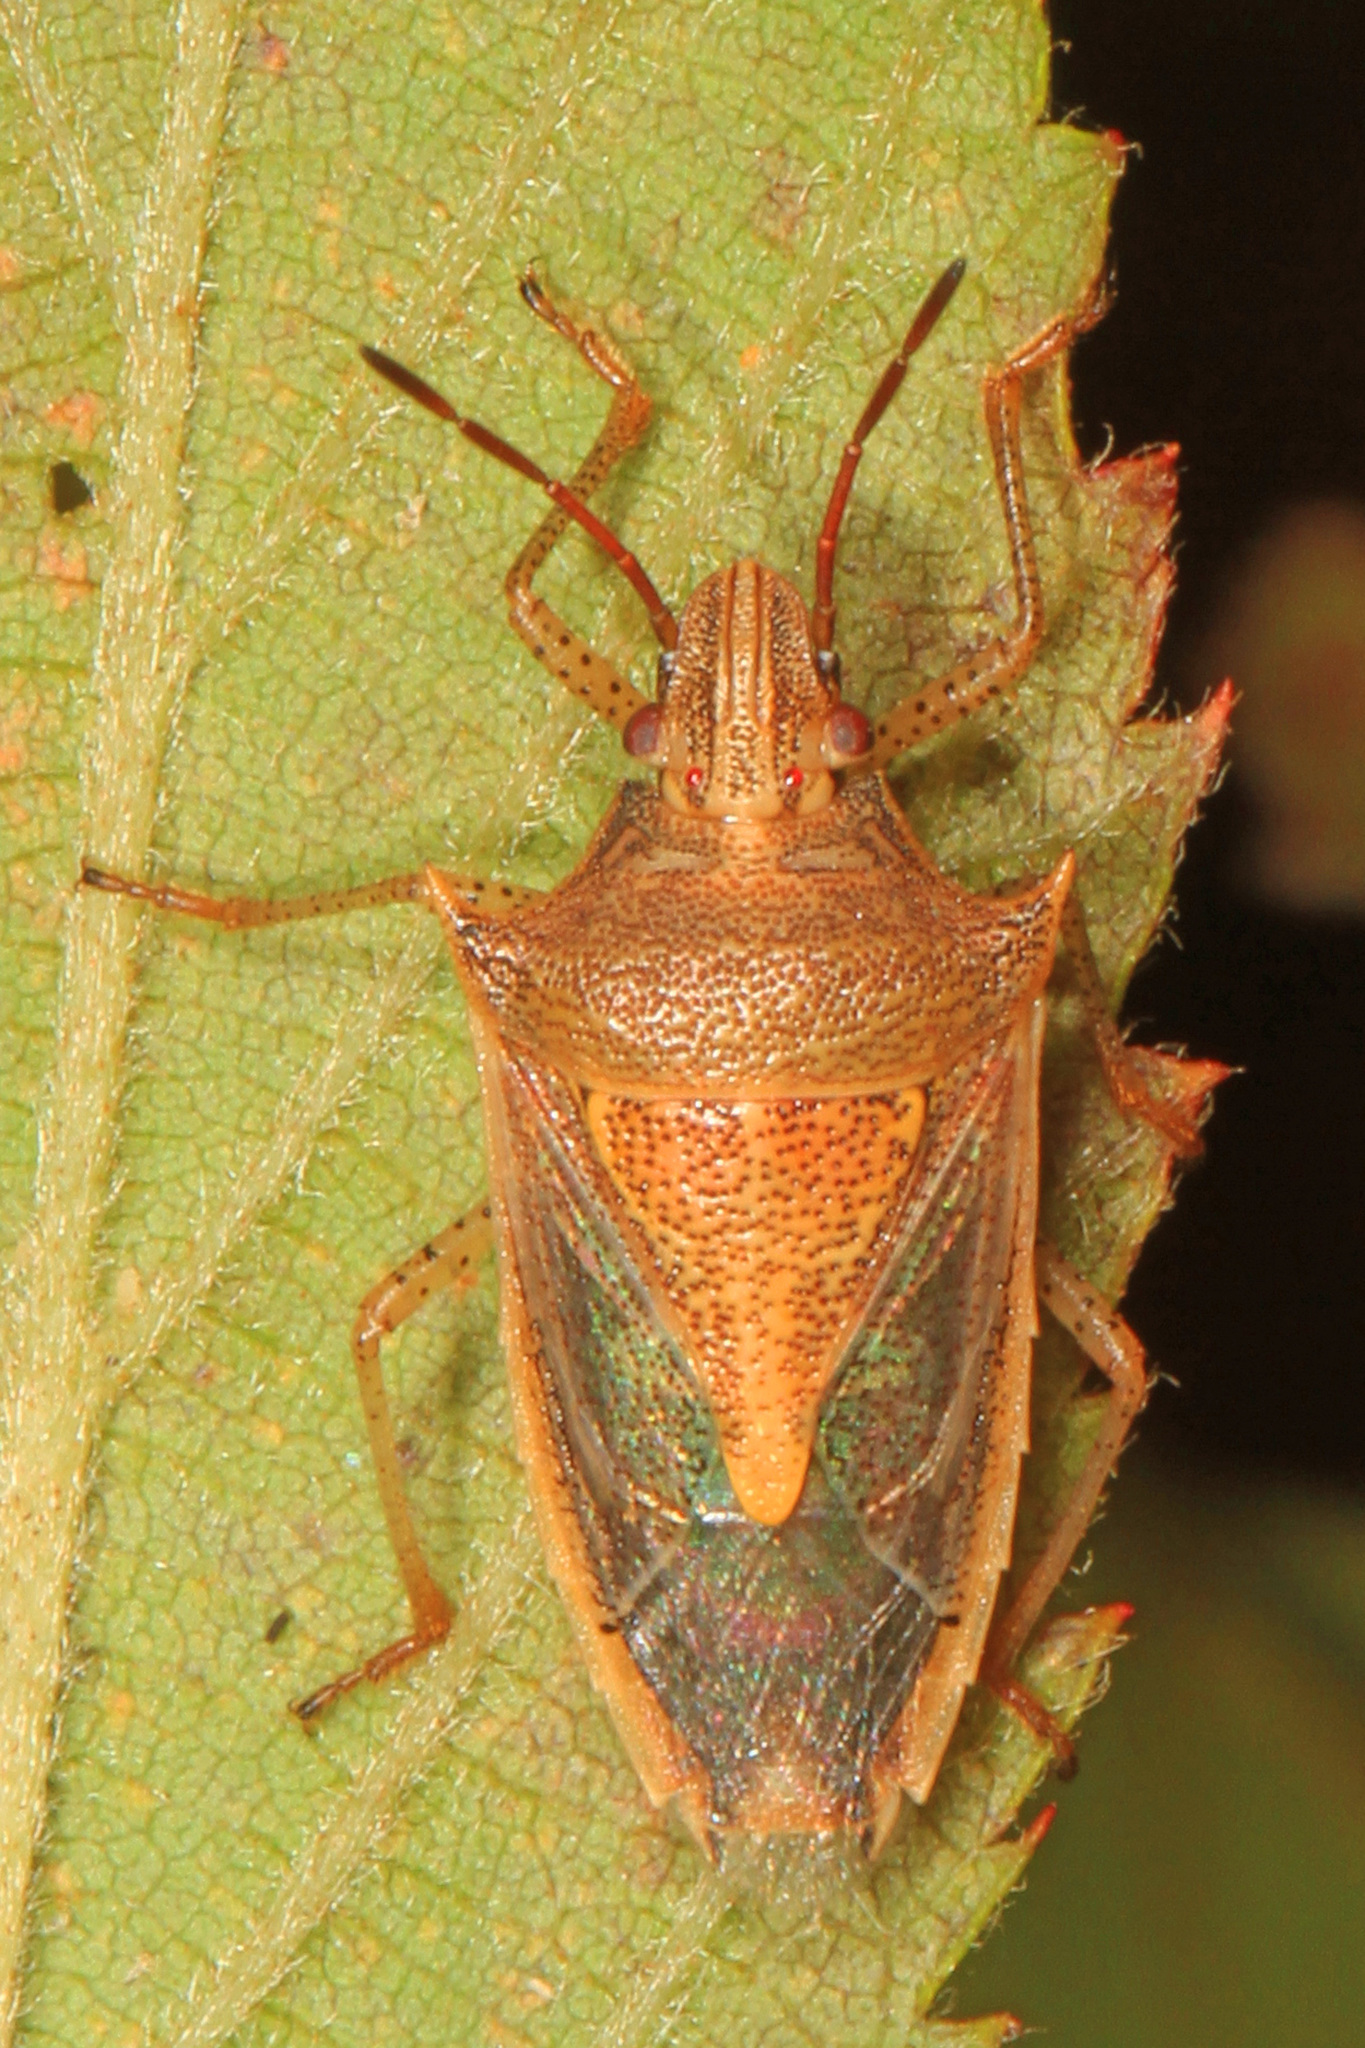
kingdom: Animalia
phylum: Arthropoda
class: Insecta
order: Hemiptera
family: Pentatomidae
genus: Oebalus
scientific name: Oebalus pugnax
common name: Rice stink bug
